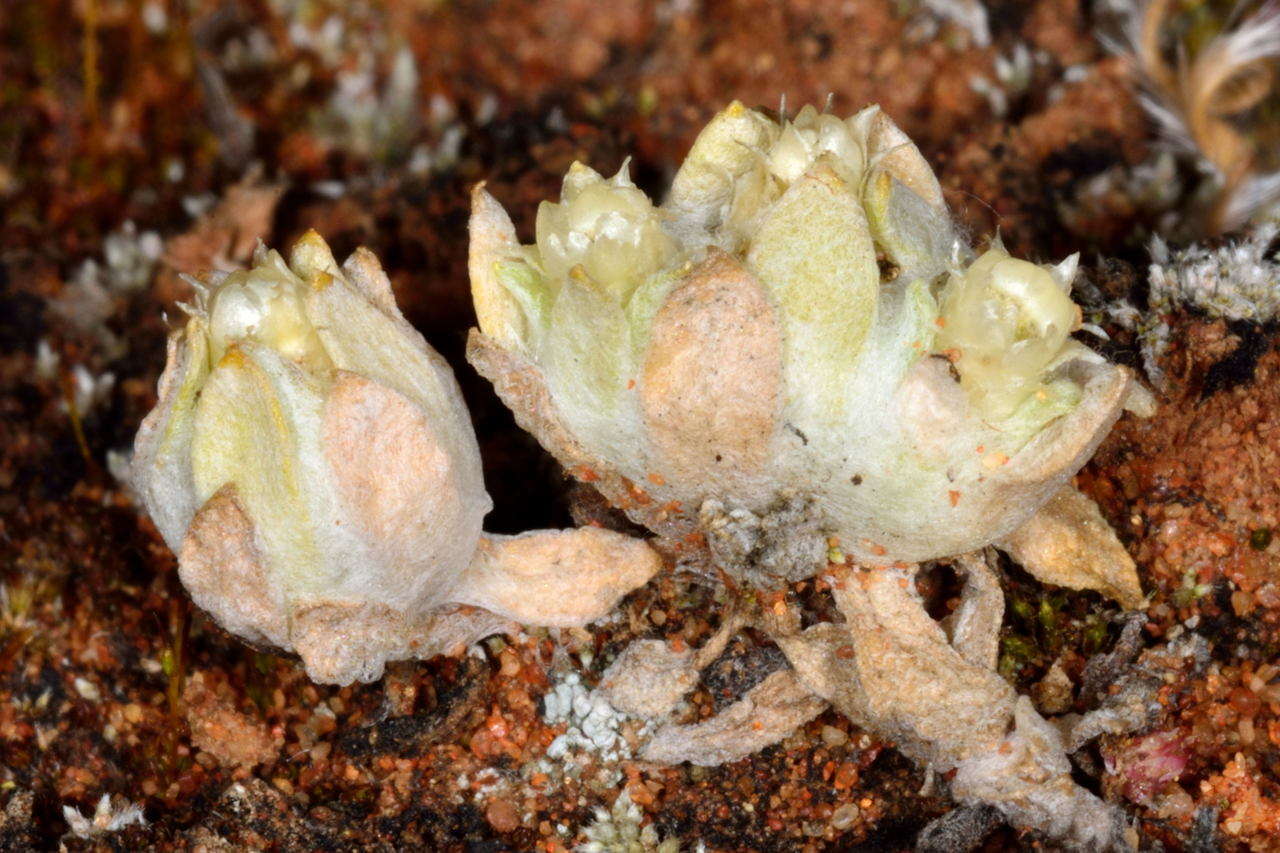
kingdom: Plantae
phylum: Tracheophyta
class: Magnoliopsida
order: Asterales
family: Asteraceae
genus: Actinobole
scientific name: Actinobole uliginosum
